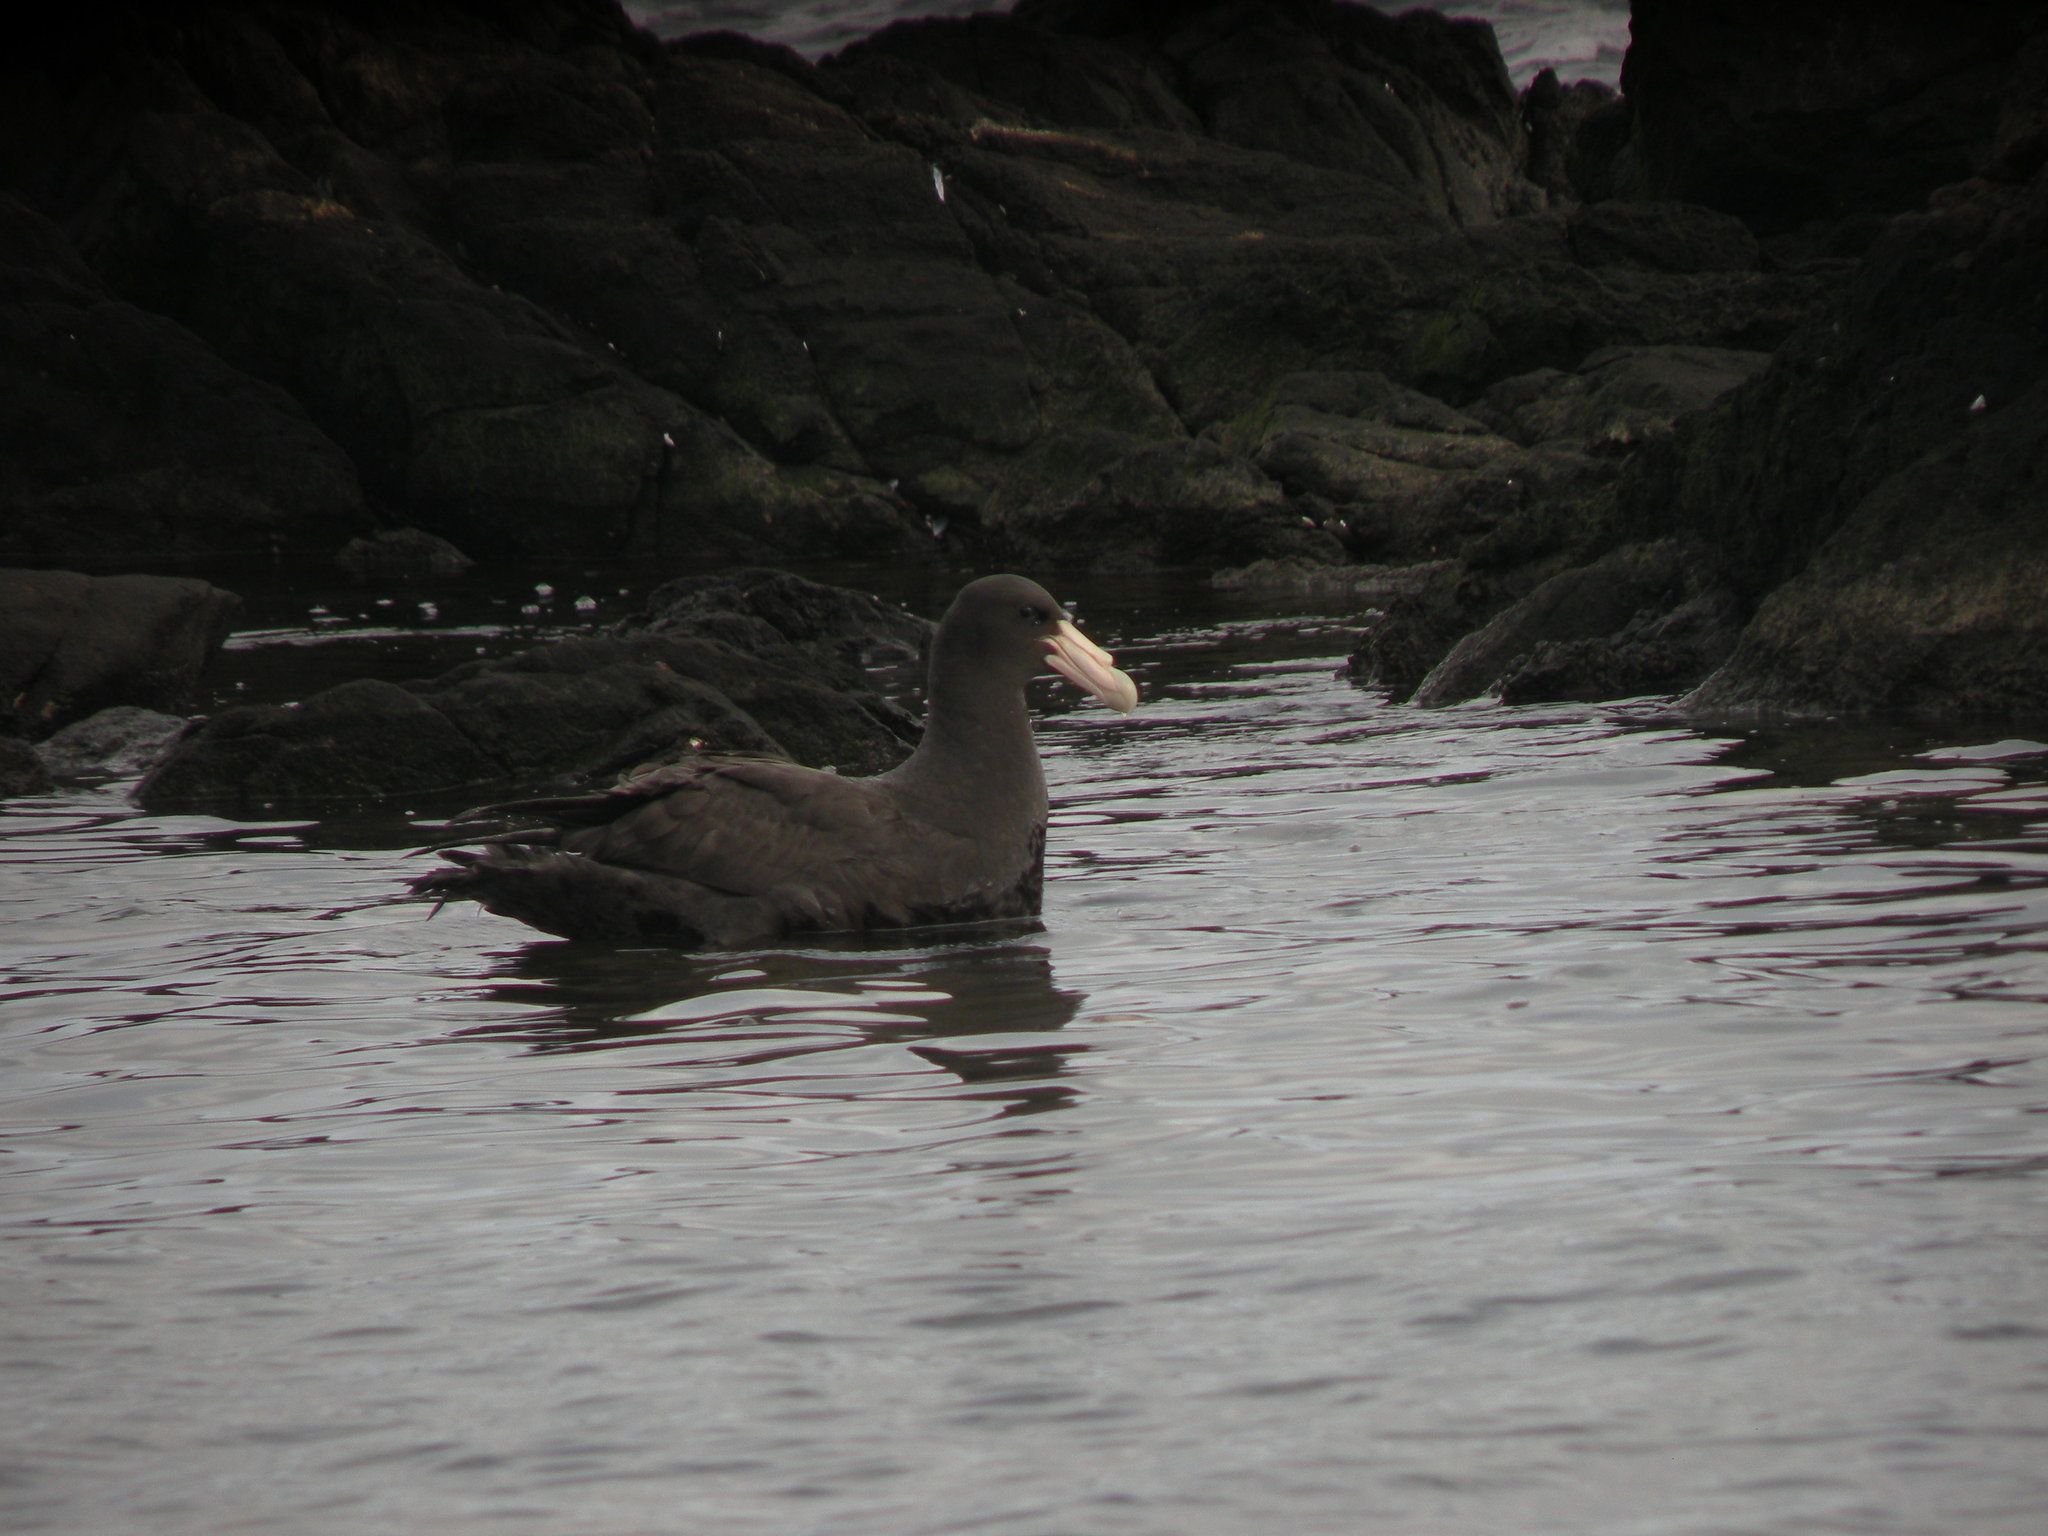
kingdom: Animalia
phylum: Chordata
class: Aves
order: Procellariiformes
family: Procellariidae
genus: Macronectes
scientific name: Macronectes giganteus
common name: Southern giant petrel
